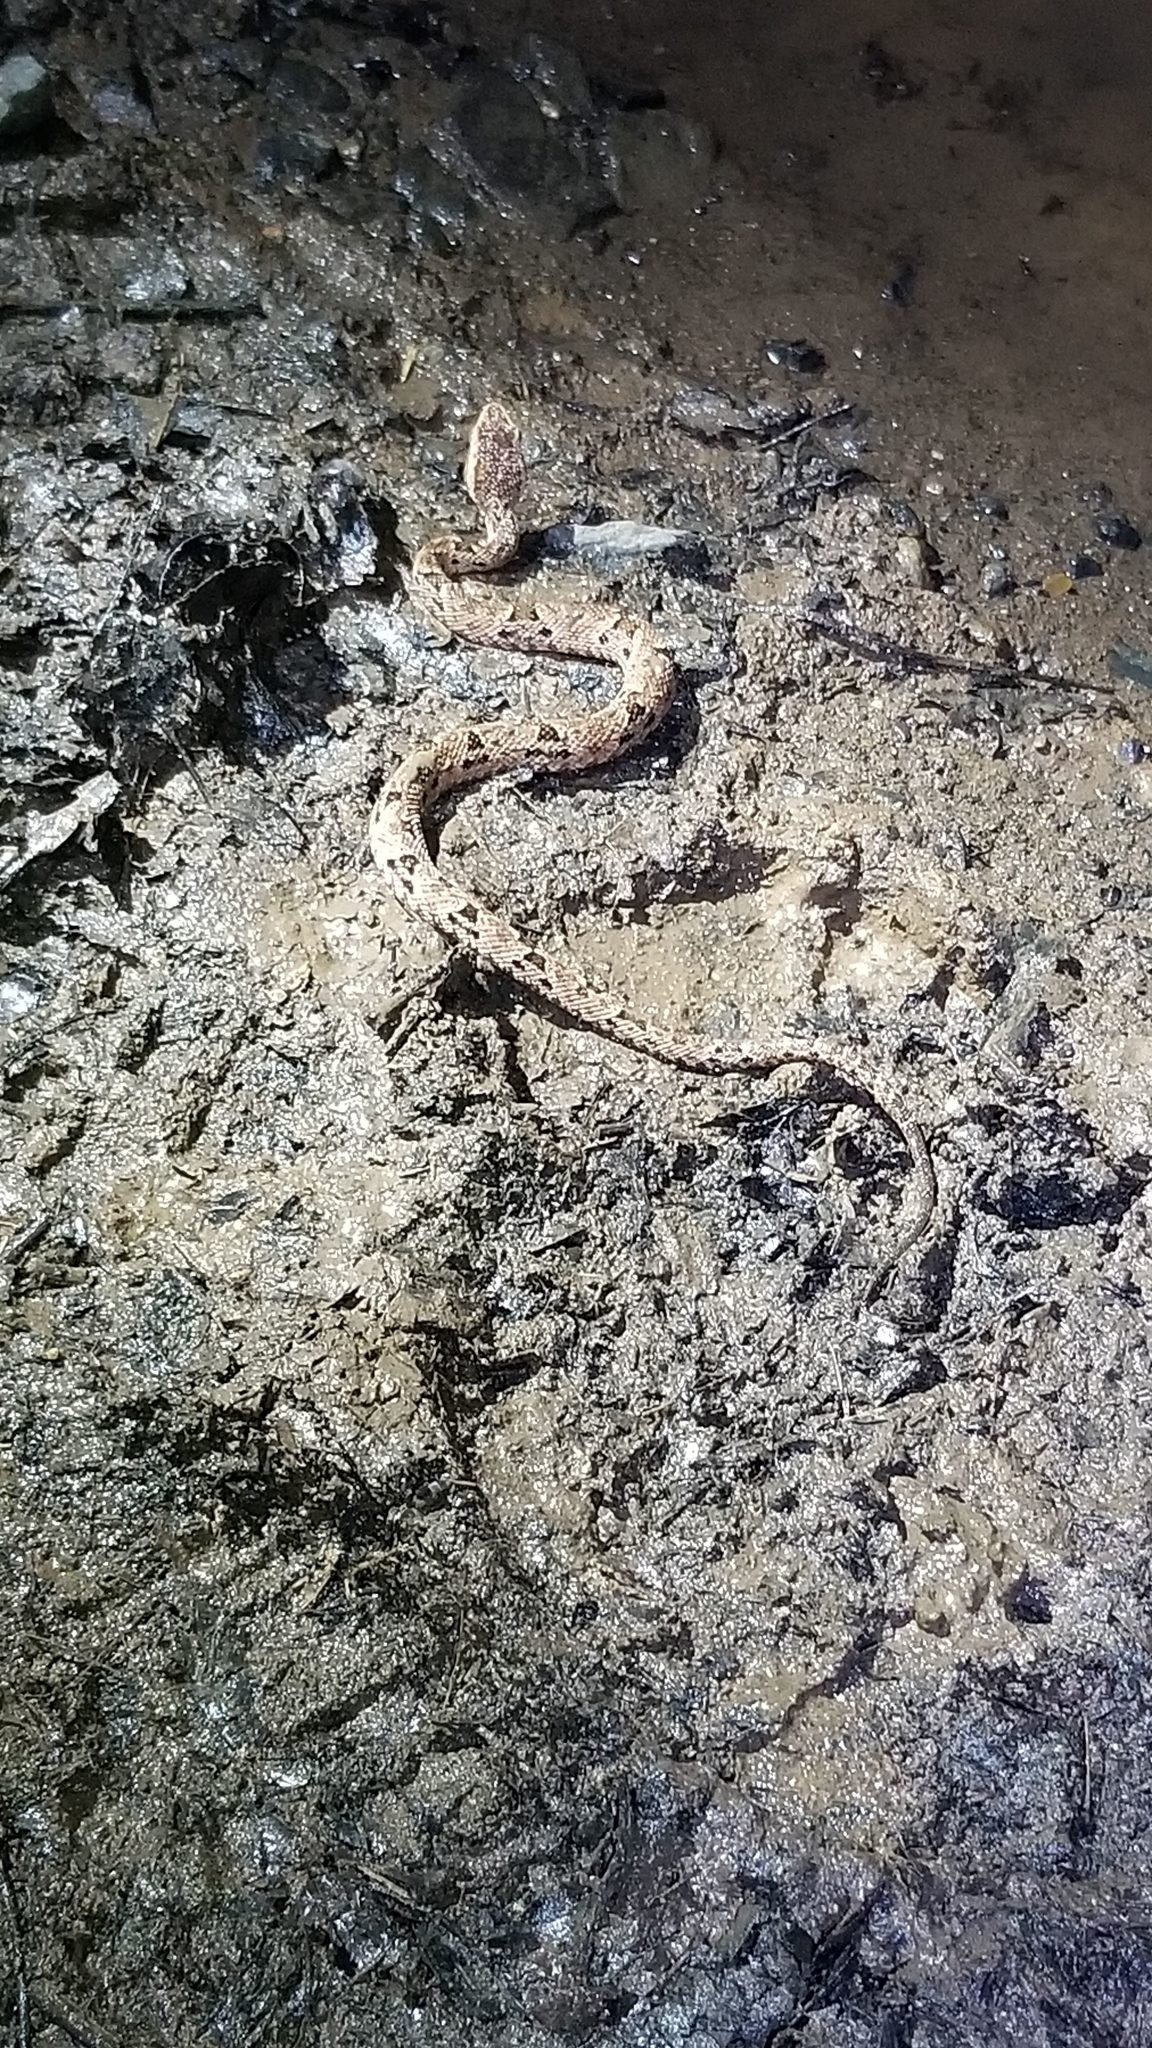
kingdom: Animalia
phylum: Chordata
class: Squamata
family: Viperidae
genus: Bothrops
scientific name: Bothrops asper
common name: Terciopelo
